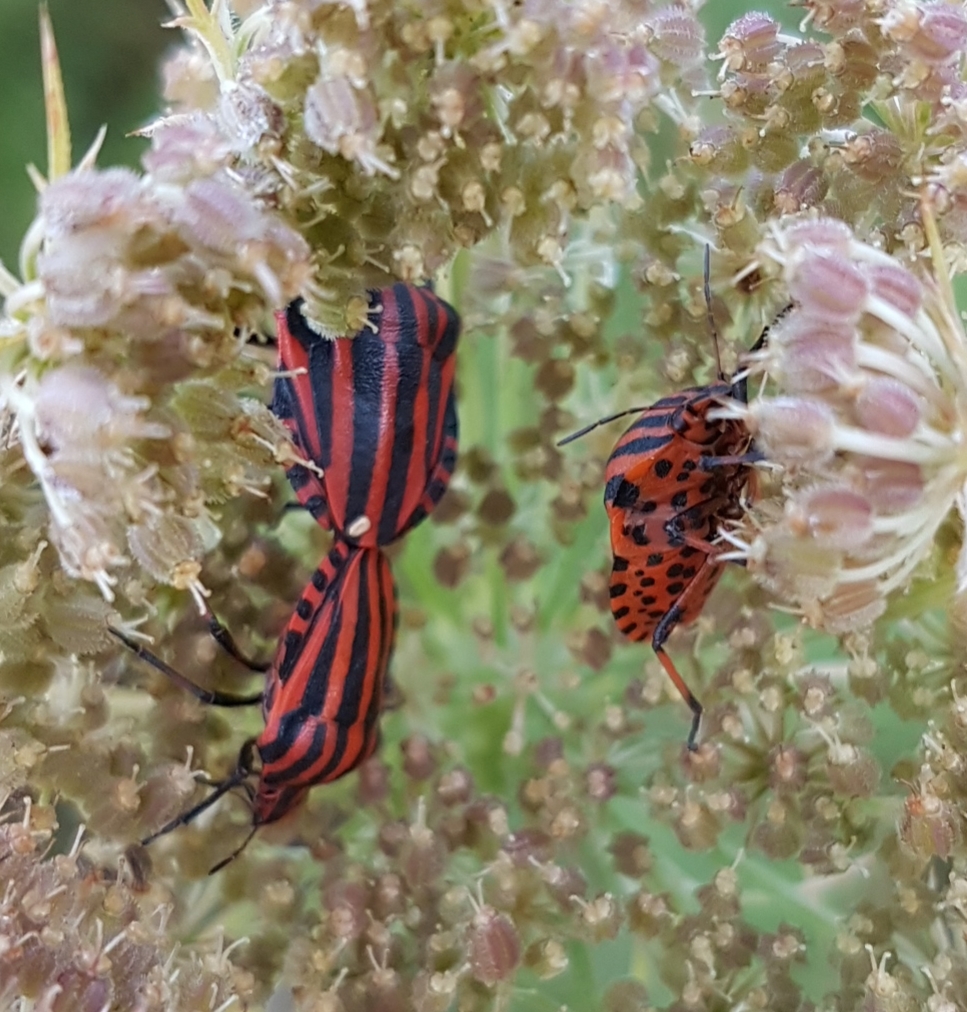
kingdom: Animalia
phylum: Arthropoda
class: Insecta
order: Hemiptera
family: Pentatomidae
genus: Graphosoma
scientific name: Graphosoma italicum
